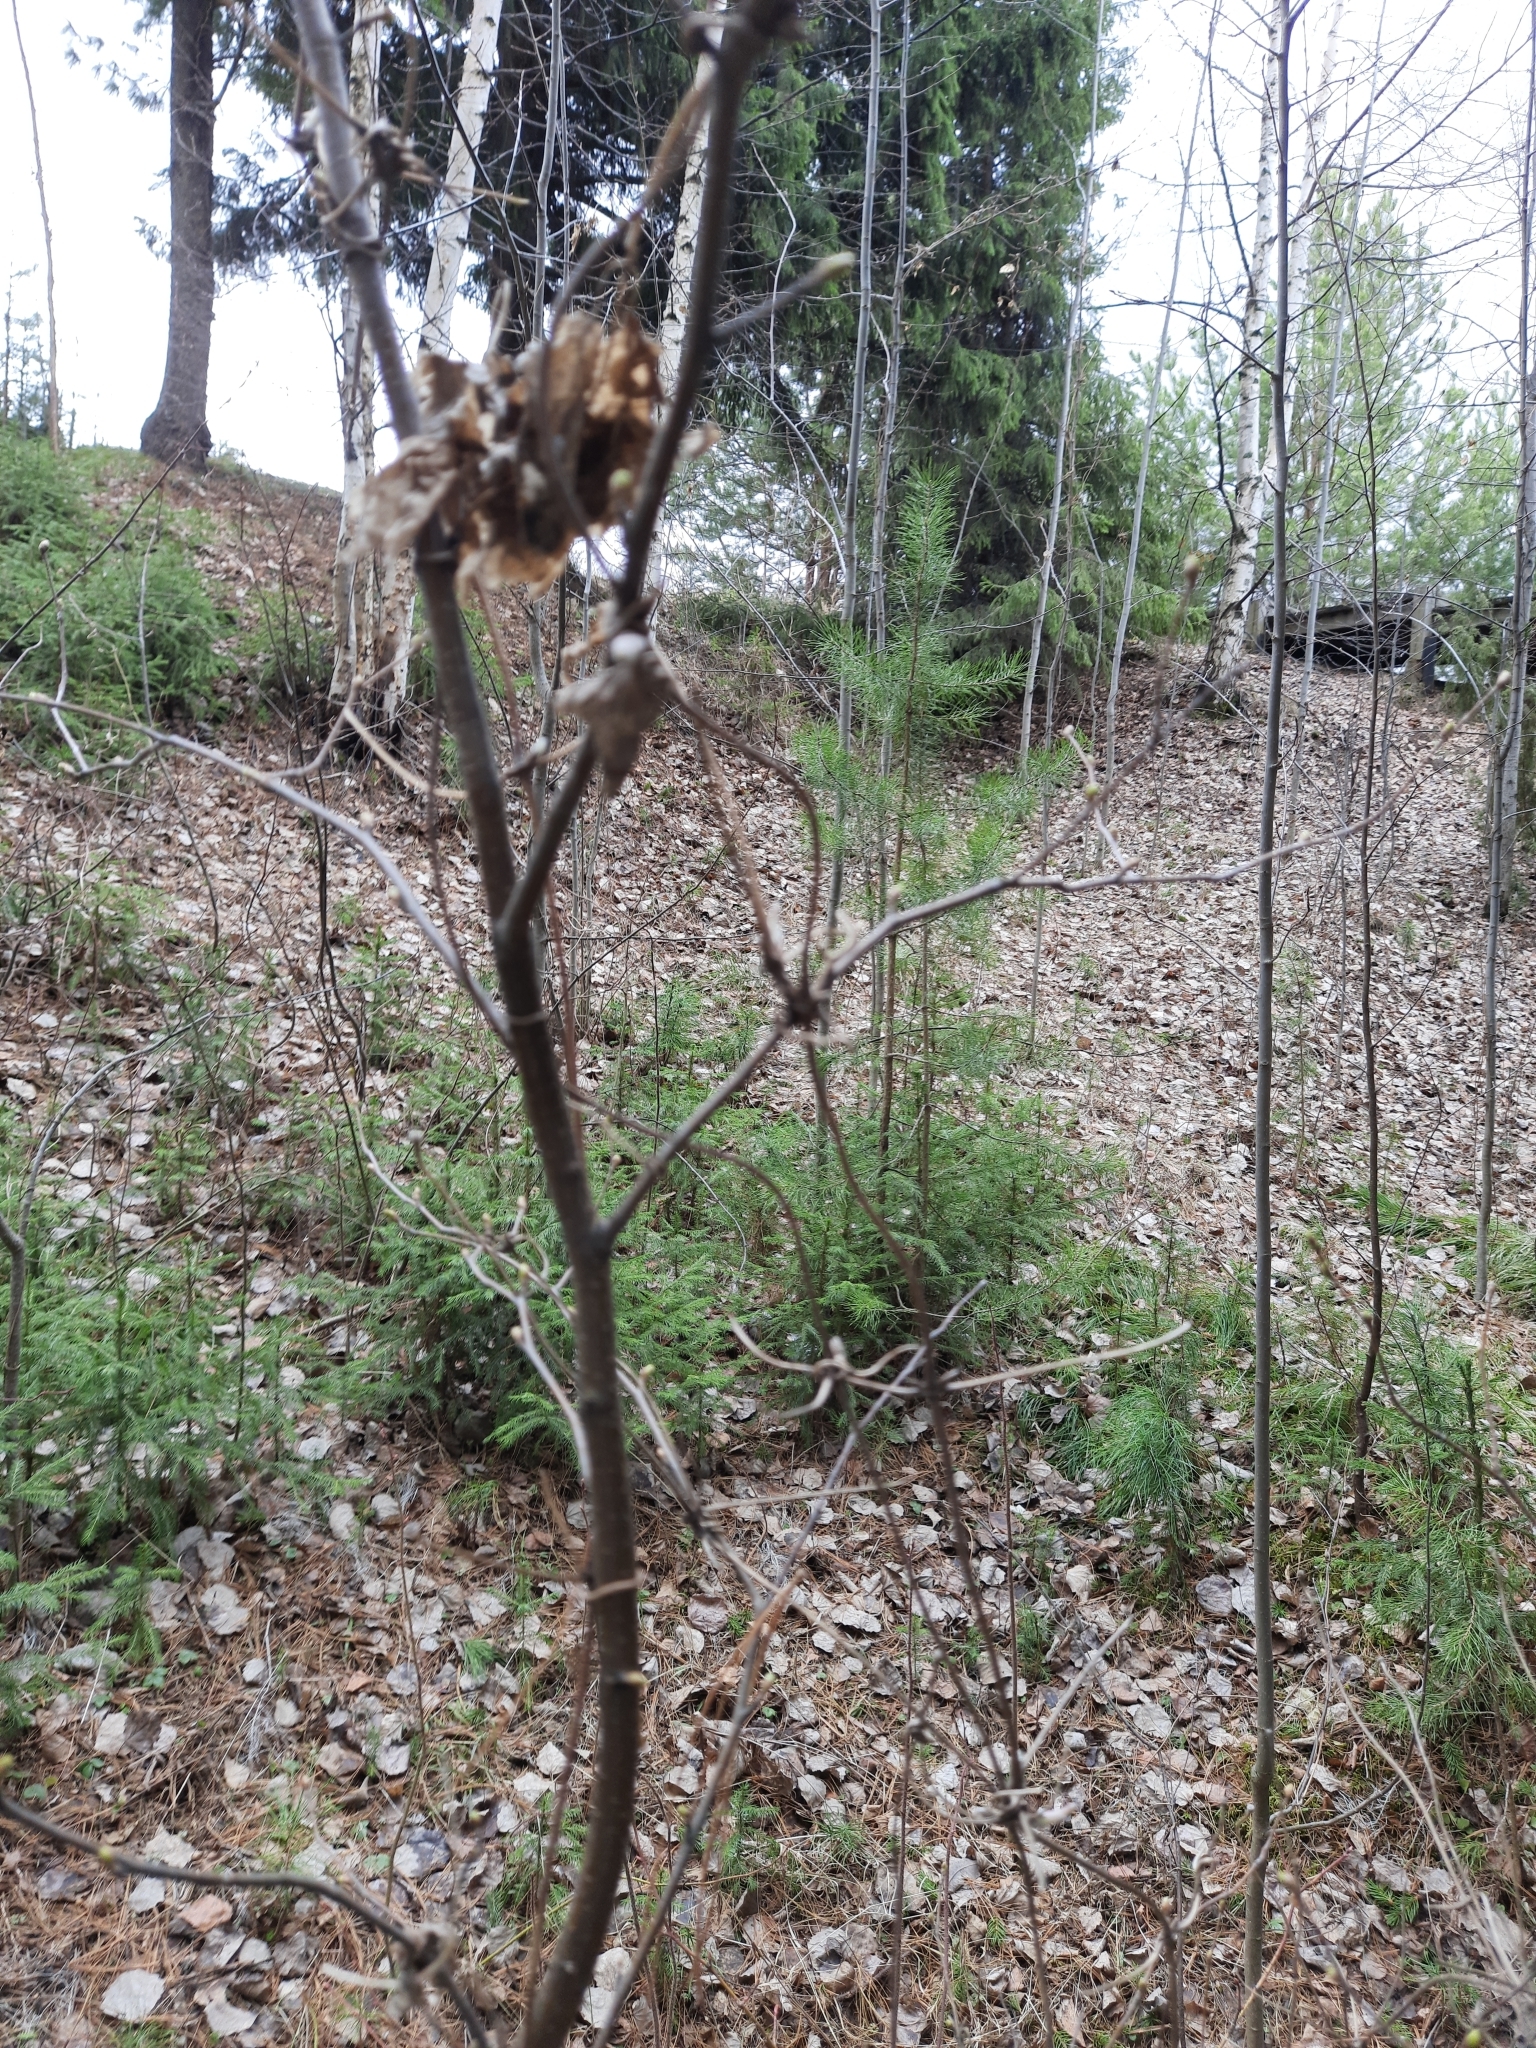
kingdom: Plantae
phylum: Tracheophyta
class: Magnoliopsida
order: Ranunculales
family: Ranunculaceae
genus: Clematis
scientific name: Clematis sibirica
